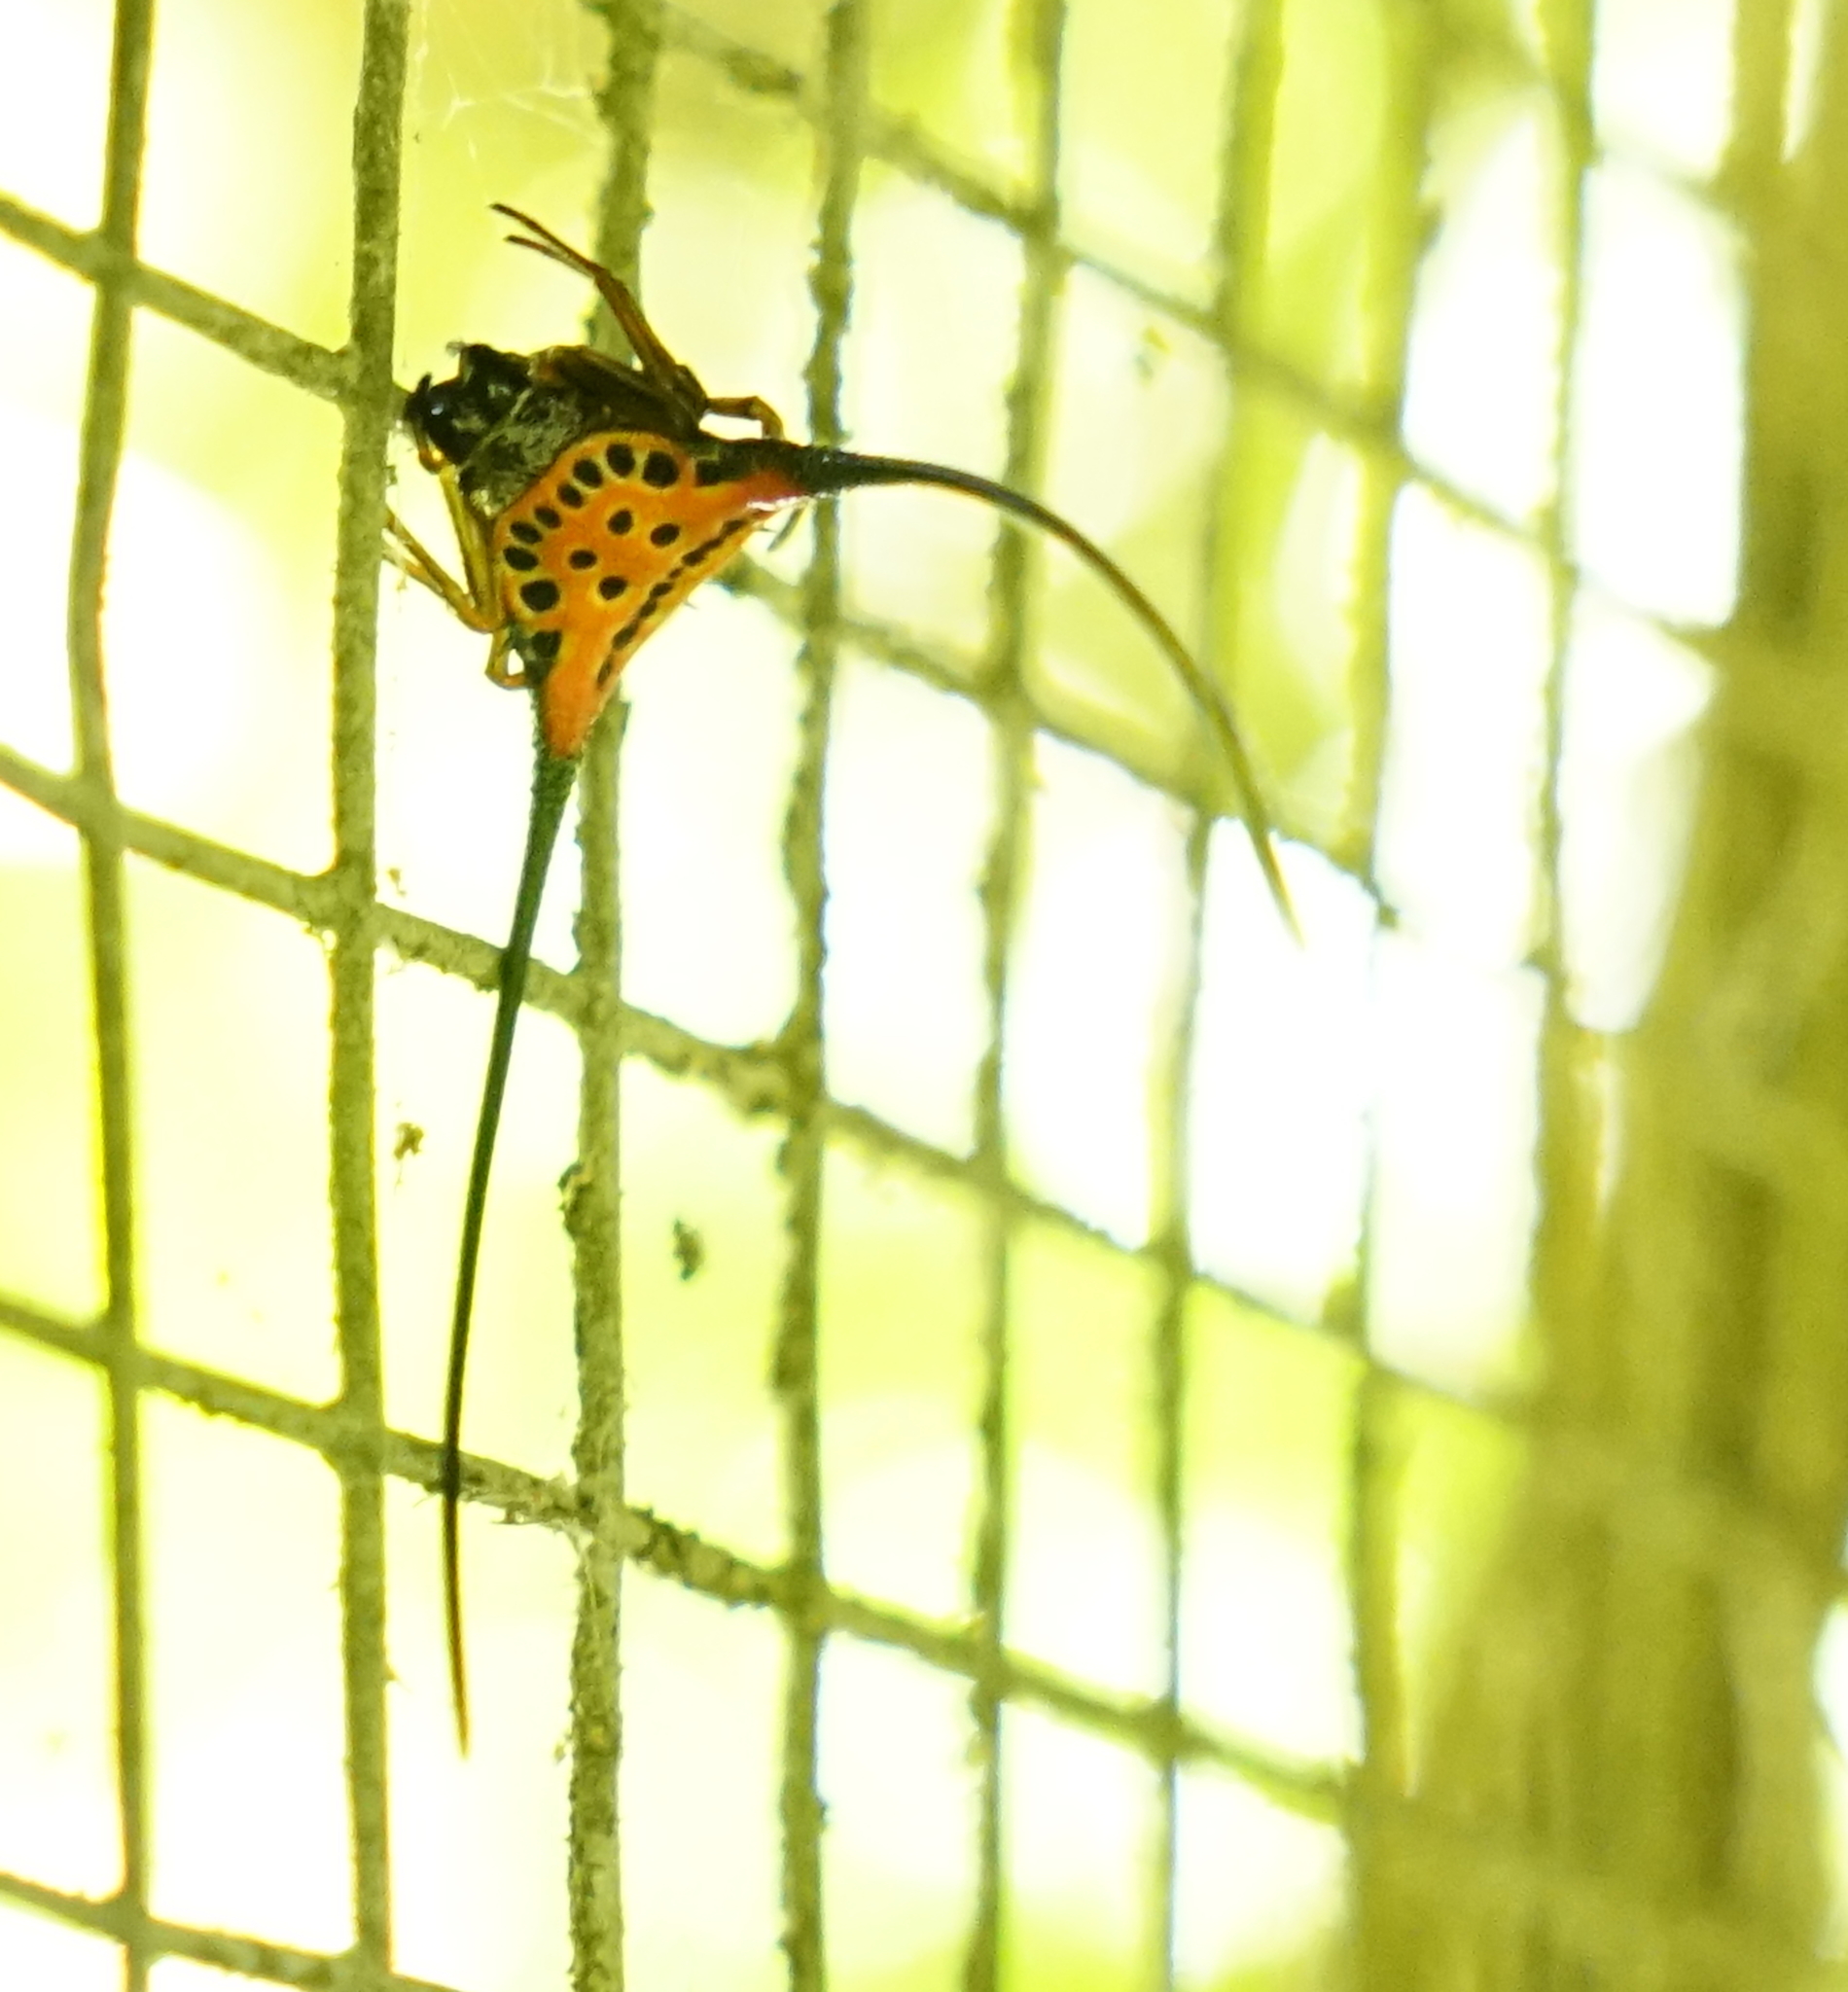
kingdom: Animalia
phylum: Arthropoda
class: Arachnida
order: Araneae
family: Araneidae
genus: Macracantha
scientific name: Macracantha arcuata
